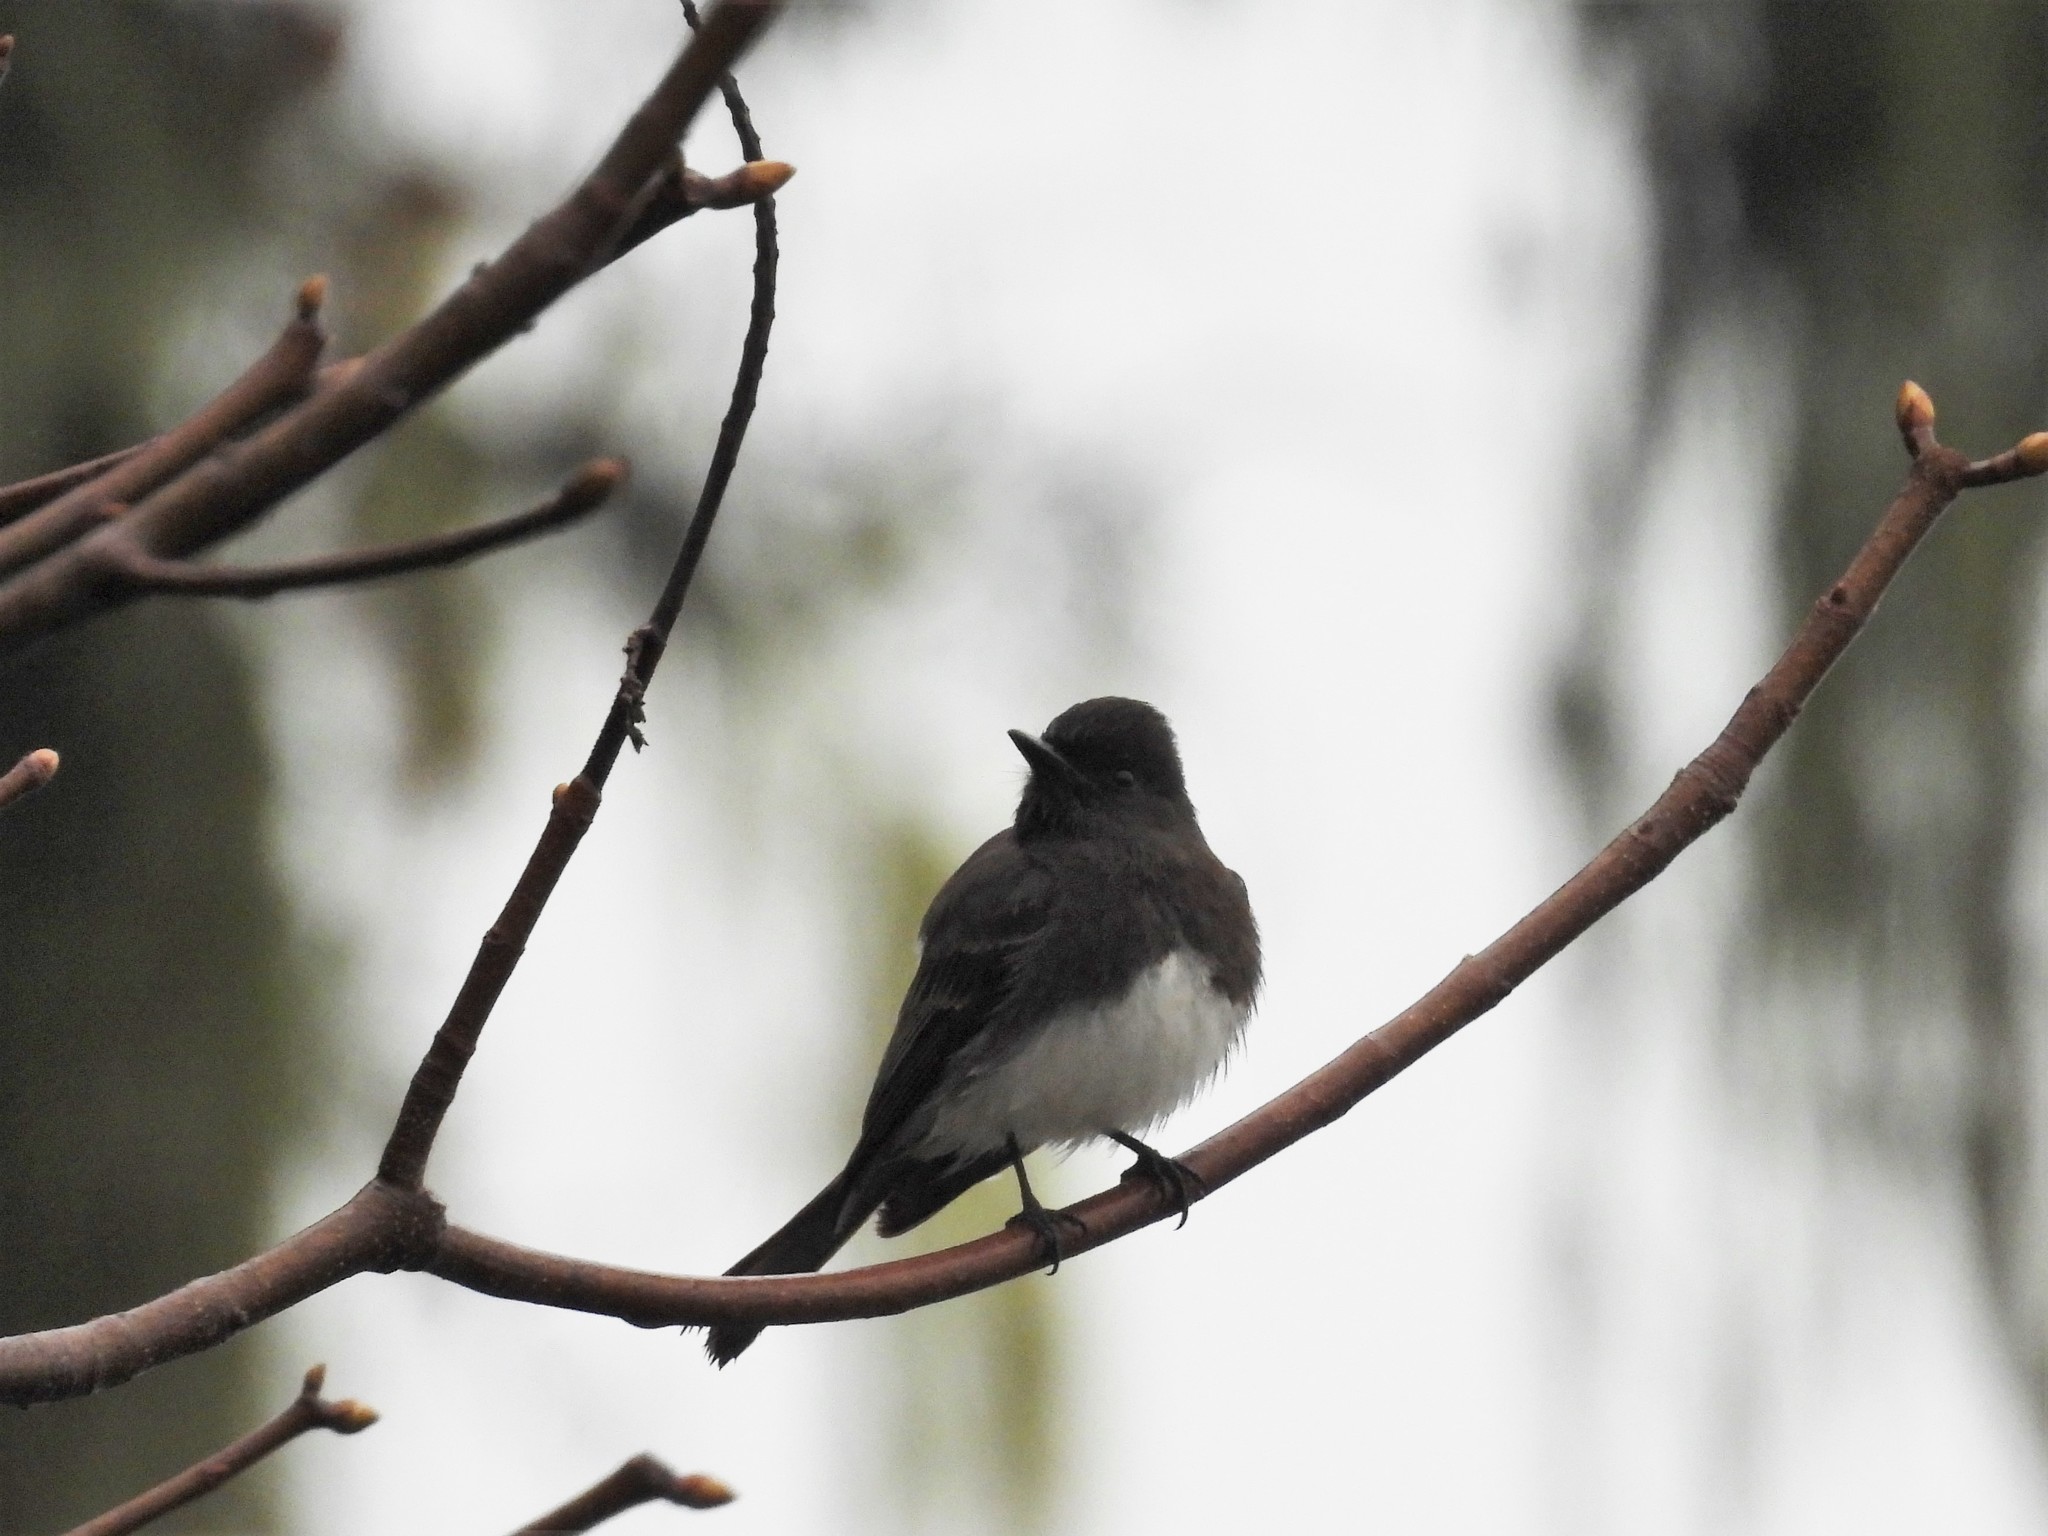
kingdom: Animalia
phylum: Chordata
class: Aves
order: Passeriformes
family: Tyrannidae
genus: Sayornis
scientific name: Sayornis nigricans
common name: Black phoebe
